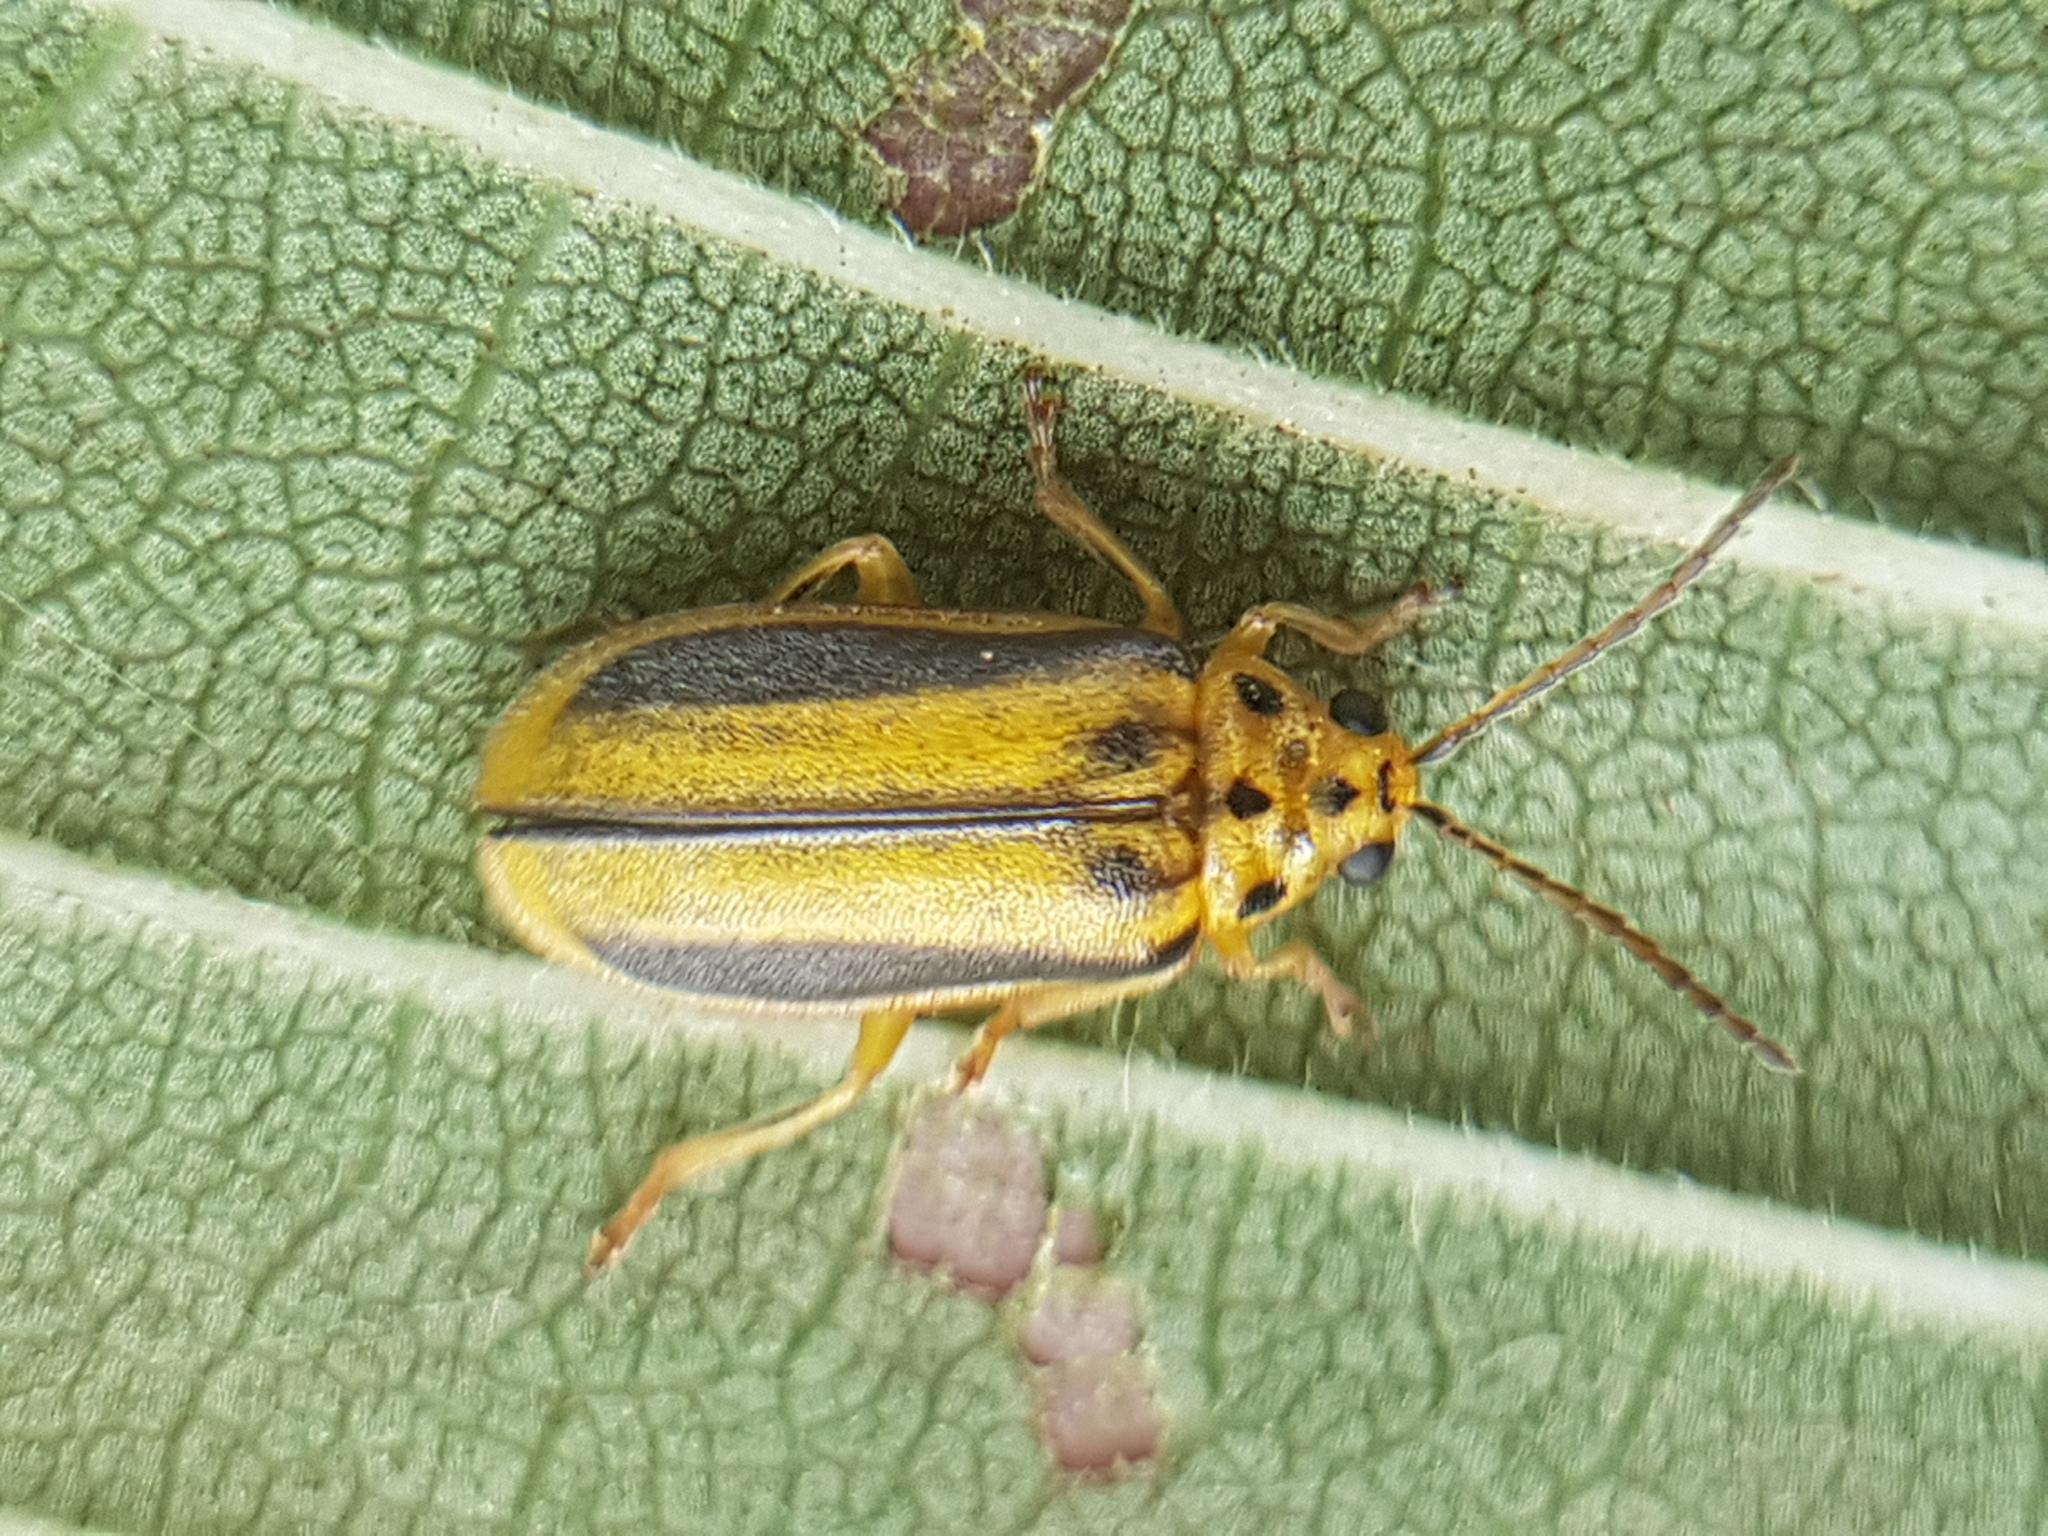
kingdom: Animalia
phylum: Arthropoda
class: Insecta
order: Coleoptera
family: Chrysomelidae
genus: Xanthogaleruca
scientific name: Xanthogaleruca luteola
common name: Elm leaf beetle
